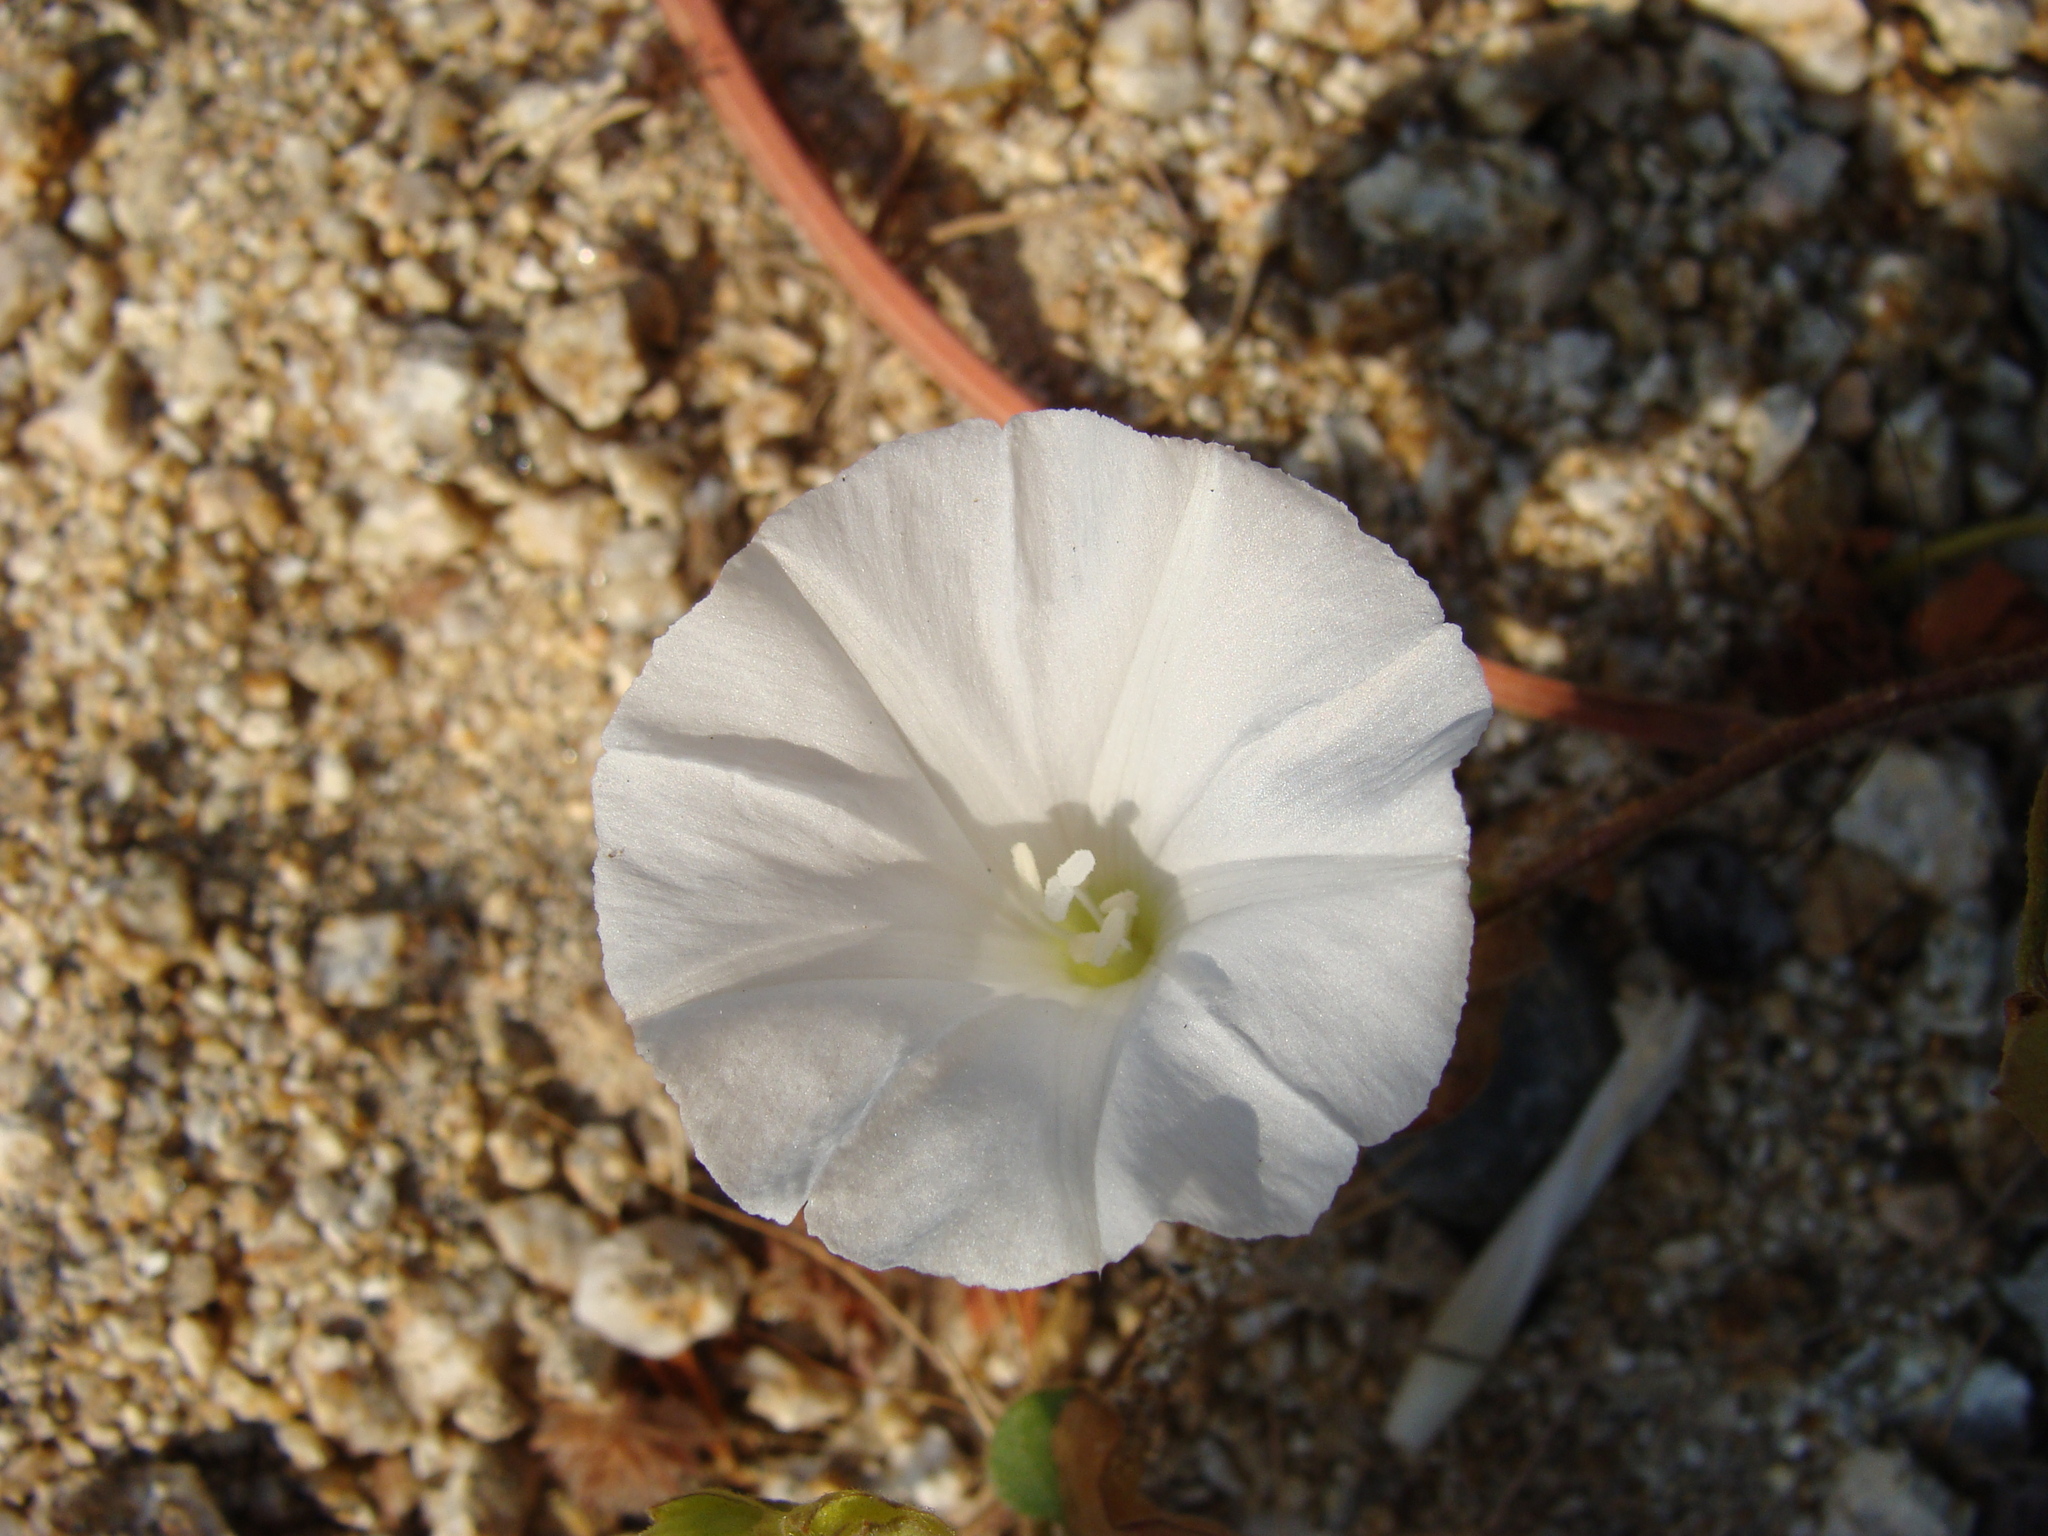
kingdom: Plantae
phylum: Tracheophyta
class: Magnoliopsida
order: Solanales
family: Convolvulaceae
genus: Jacquemontia
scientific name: Jacquemontia mexicana
